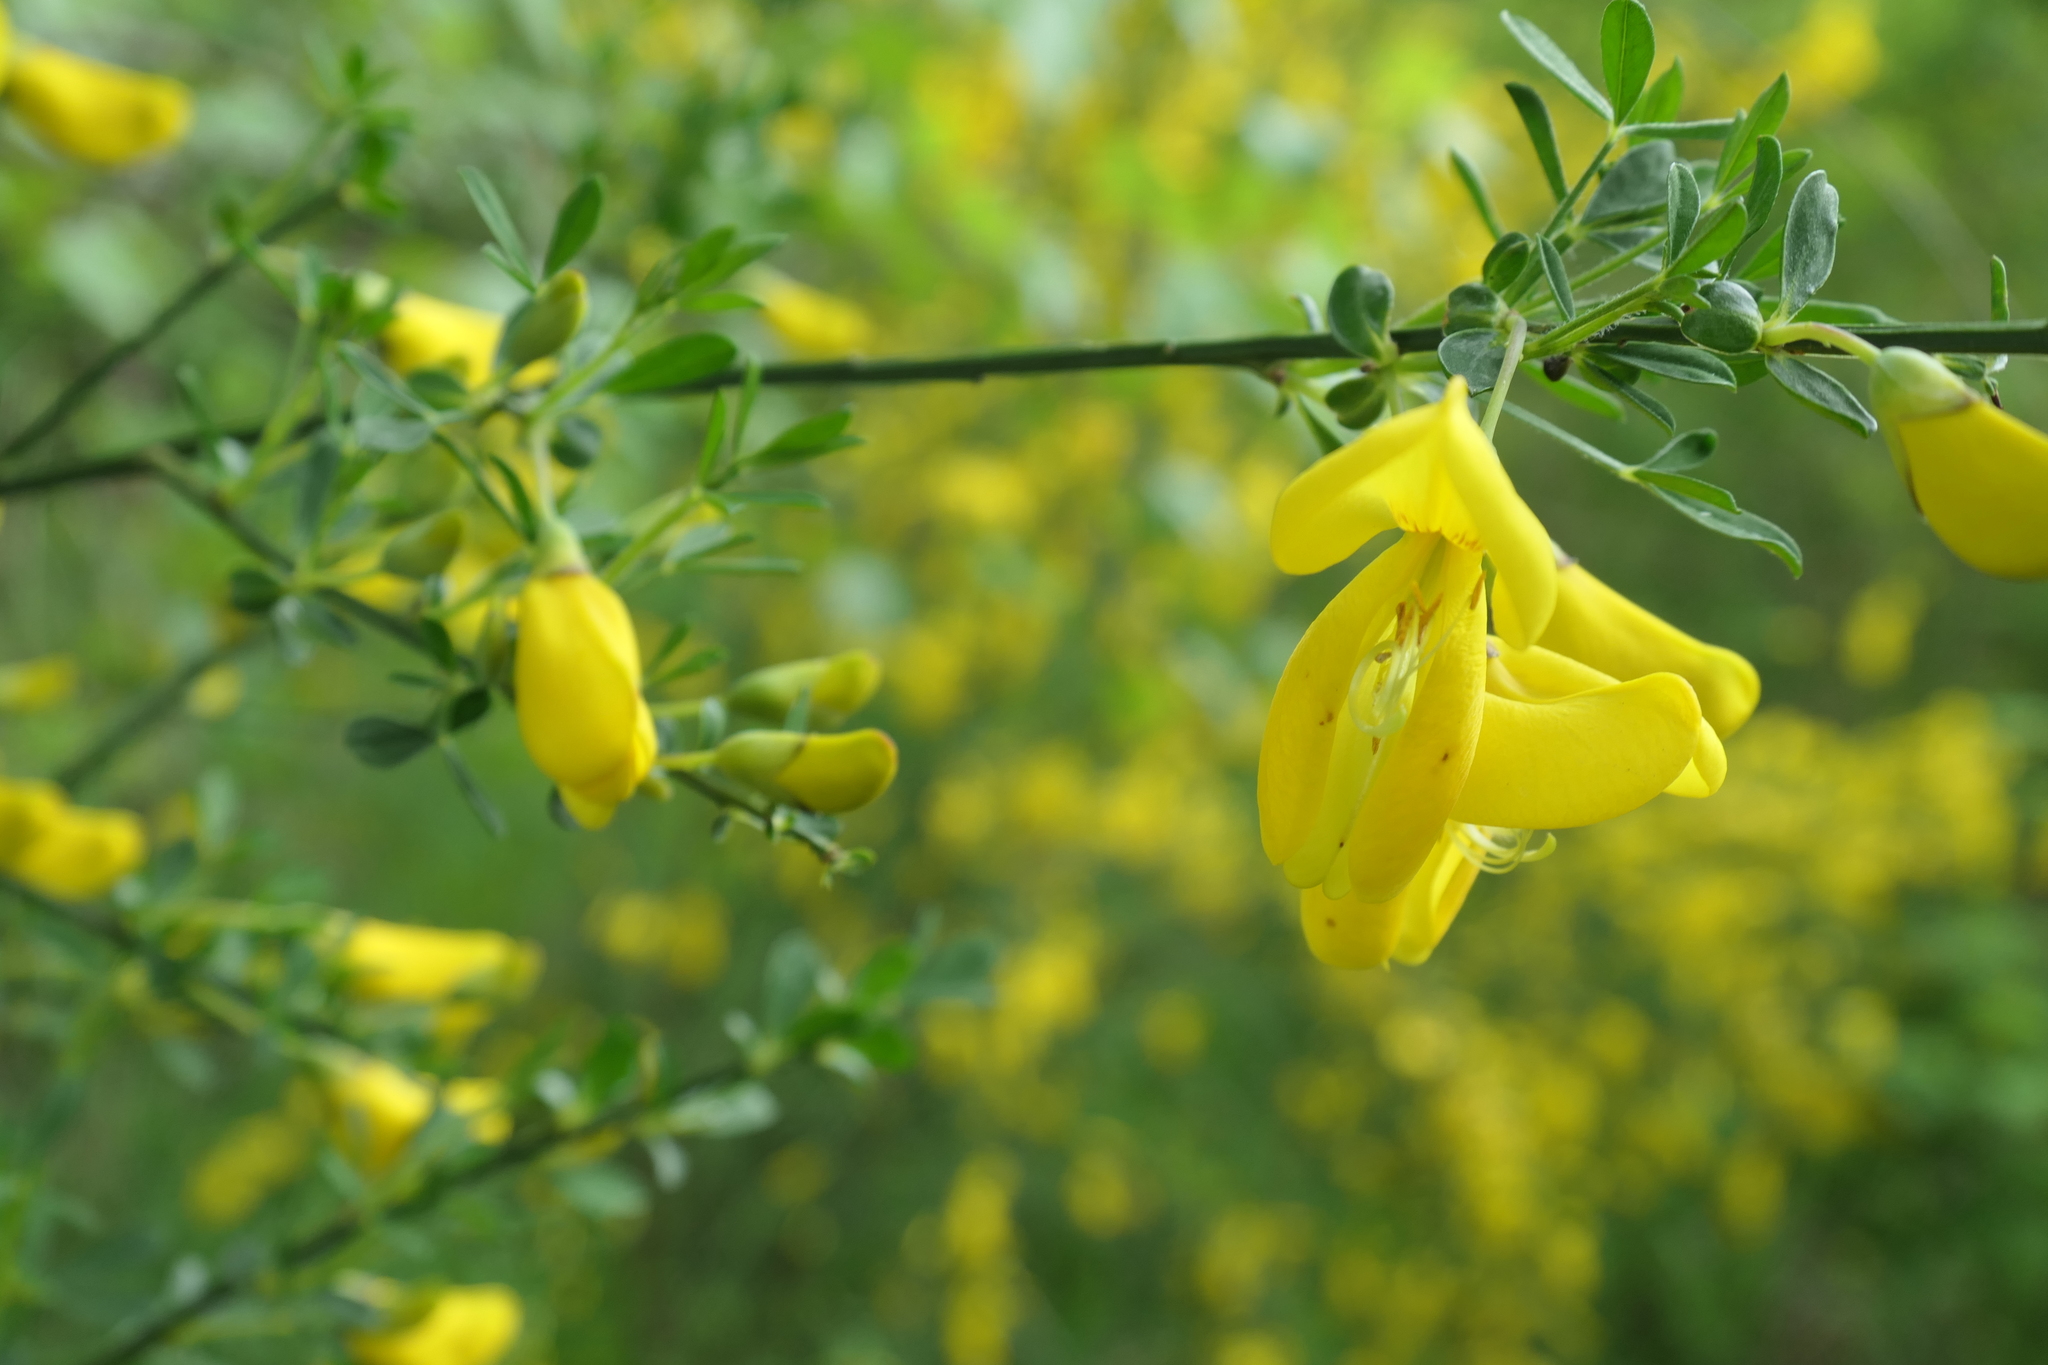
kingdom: Plantae
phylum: Tracheophyta
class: Magnoliopsida
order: Fabales
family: Fabaceae
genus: Cytisus
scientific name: Cytisus scoparius
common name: Scotch broom
